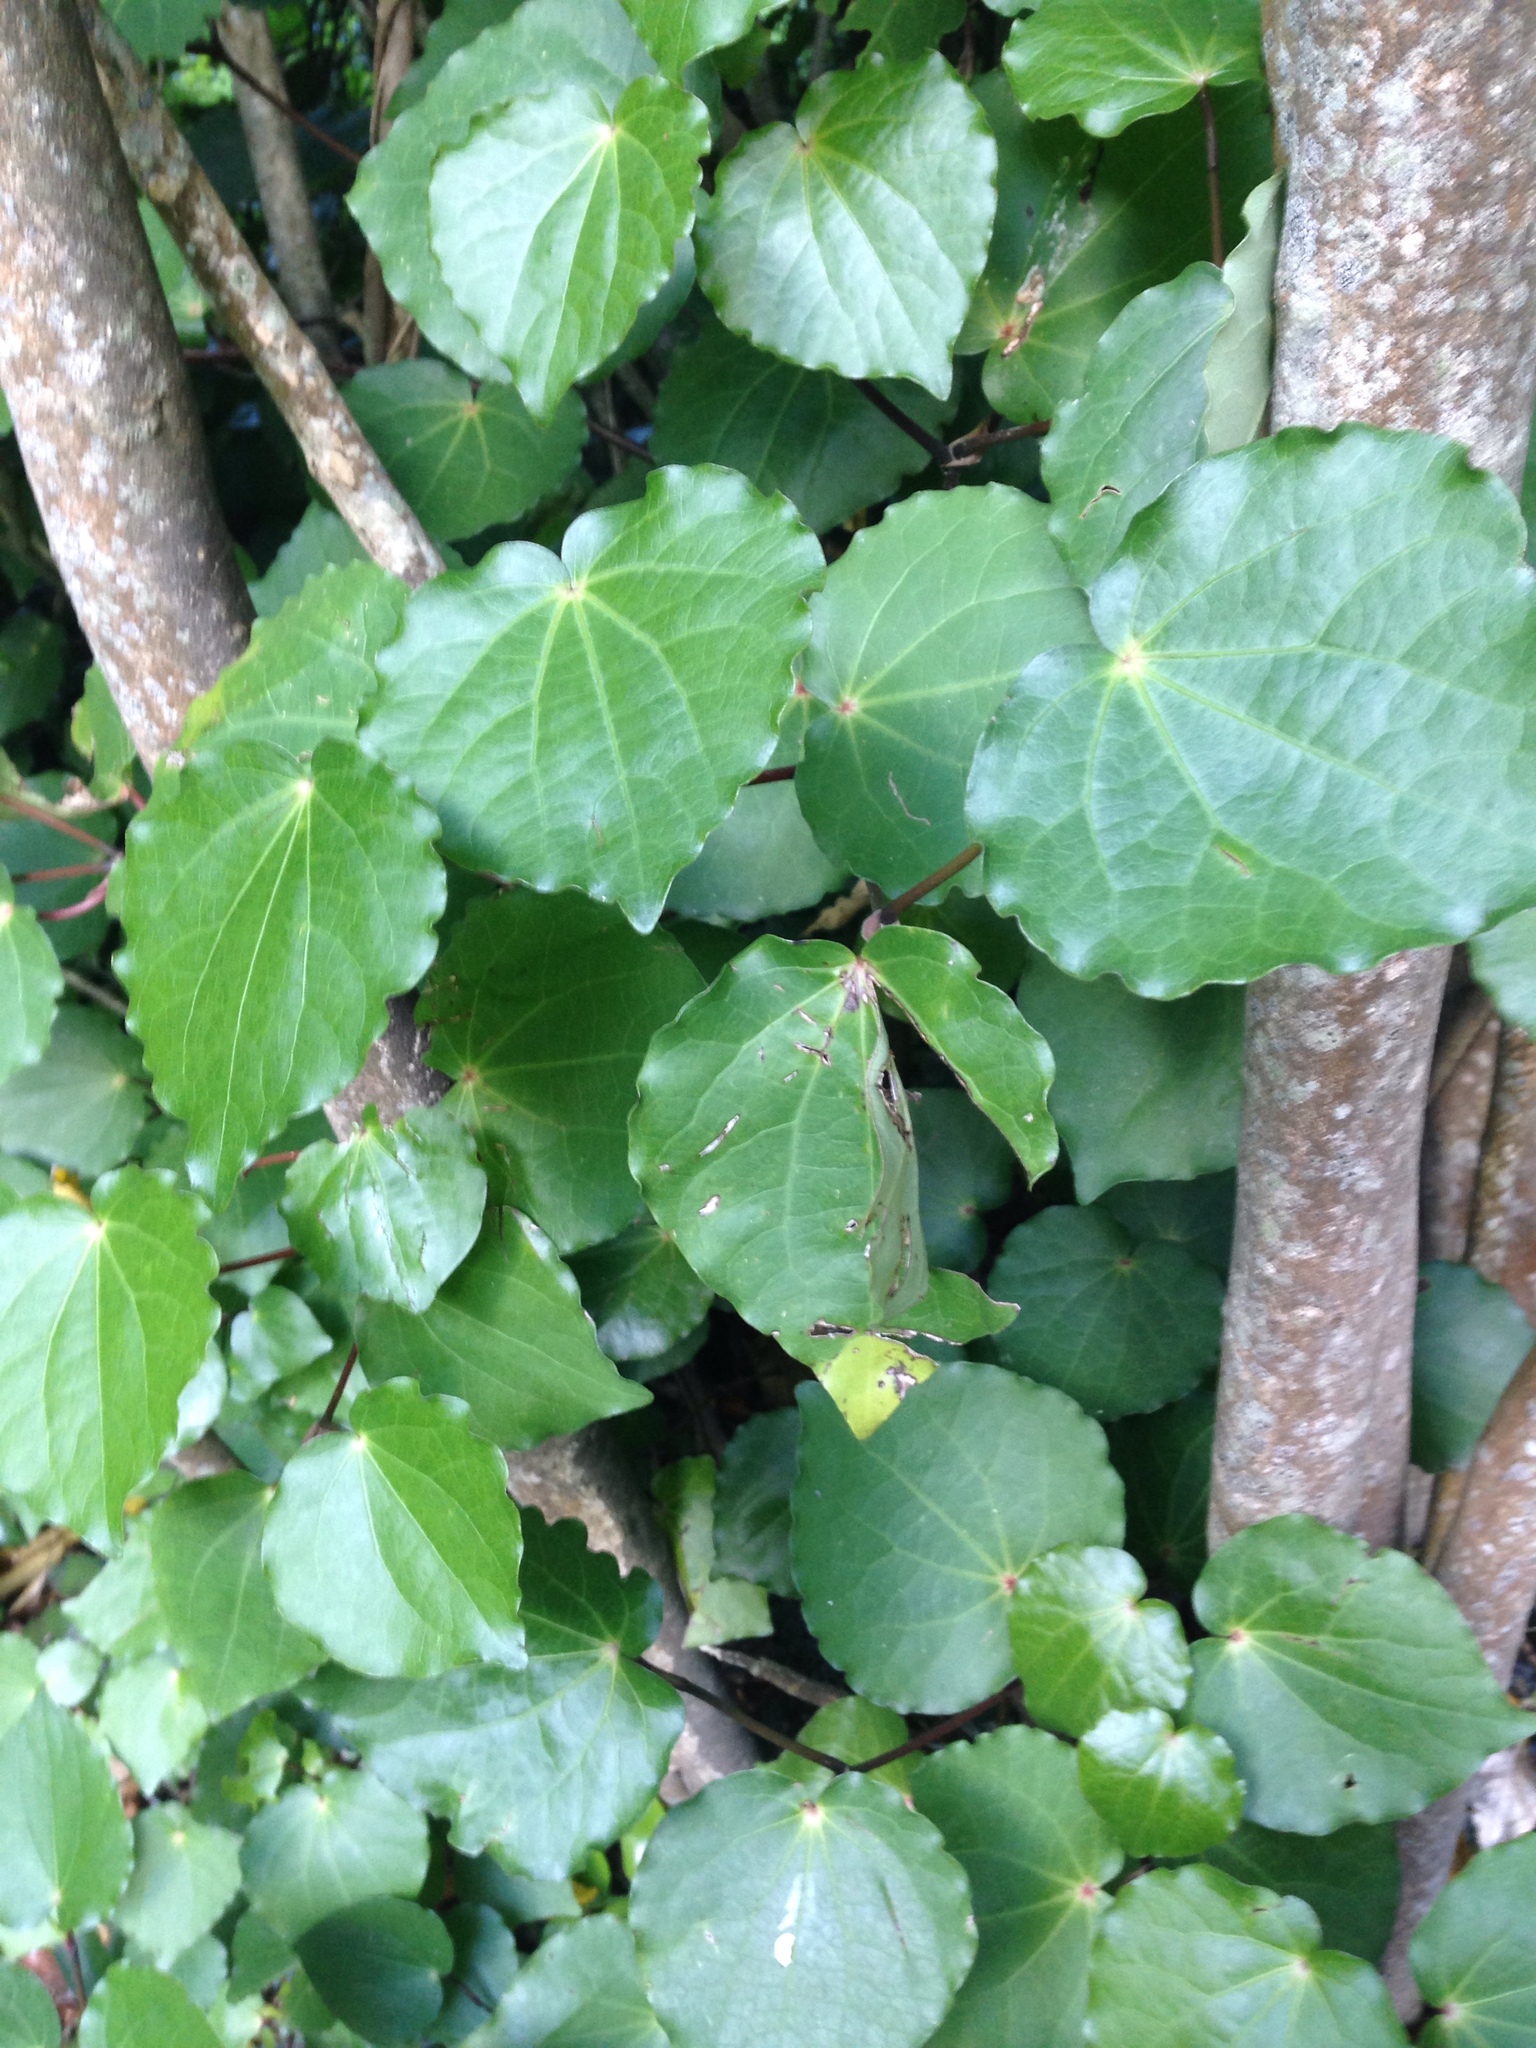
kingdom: Plantae
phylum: Tracheophyta
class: Magnoliopsida
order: Piperales
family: Piperaceae
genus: Macropiper
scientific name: Macropiper excelsum
